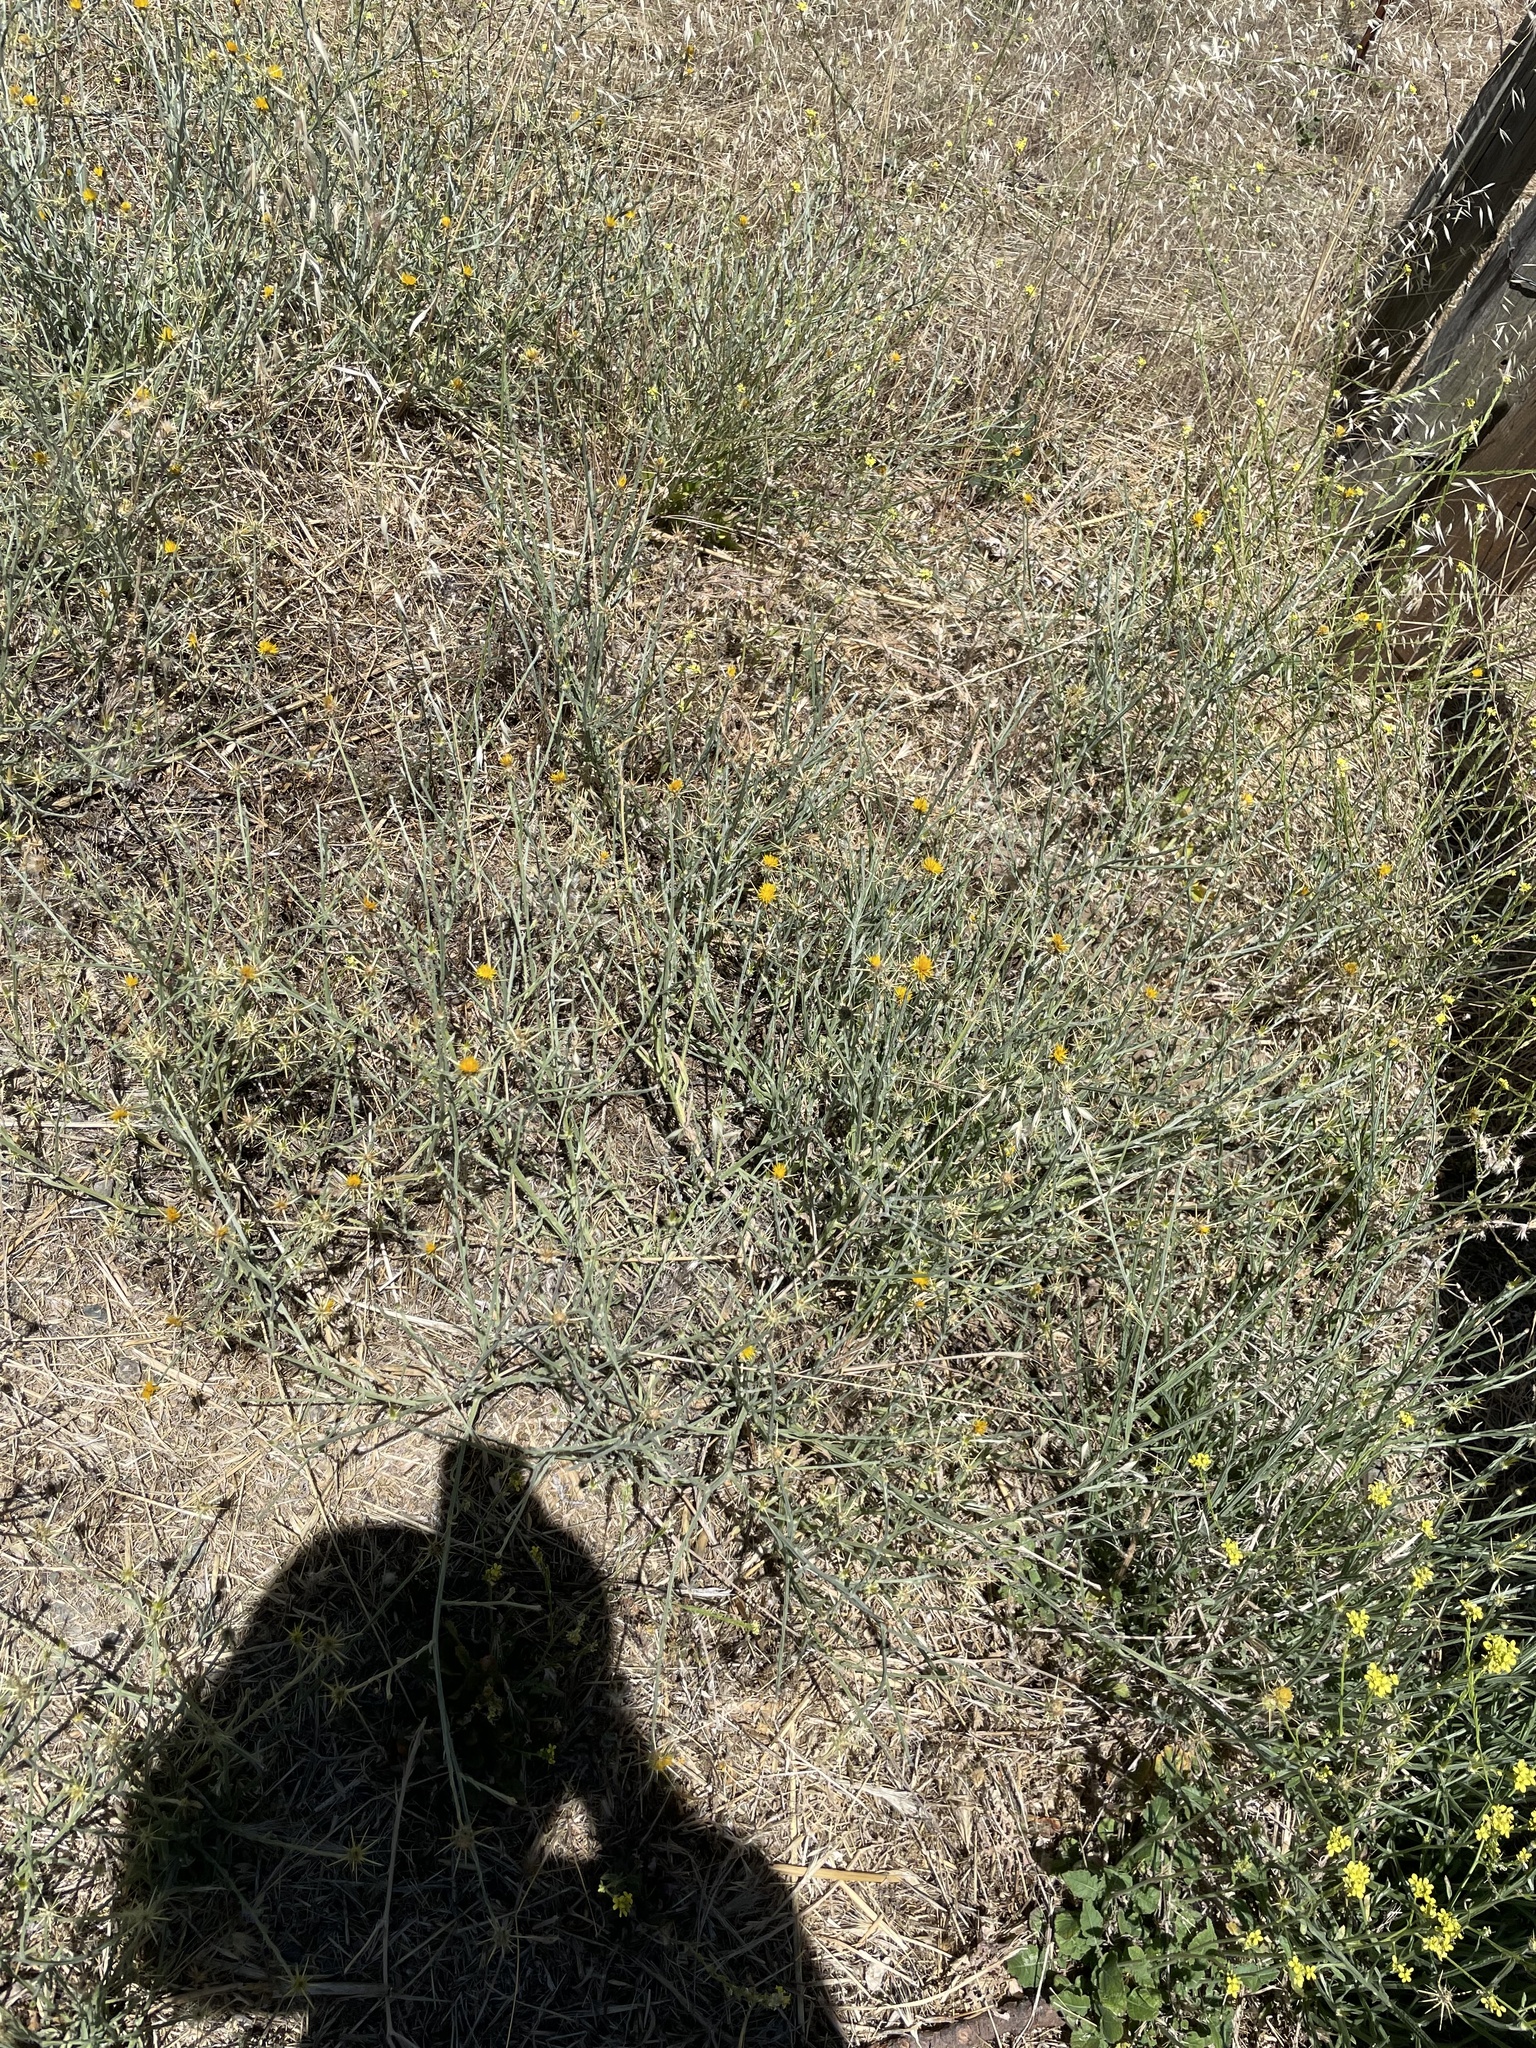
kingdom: Plantae
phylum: Tracheophyta
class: Magnoliopsida
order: Asterales
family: Asteraceae
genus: Centaurea
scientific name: Centaurea solstitialis
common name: Yellow star-thistle
